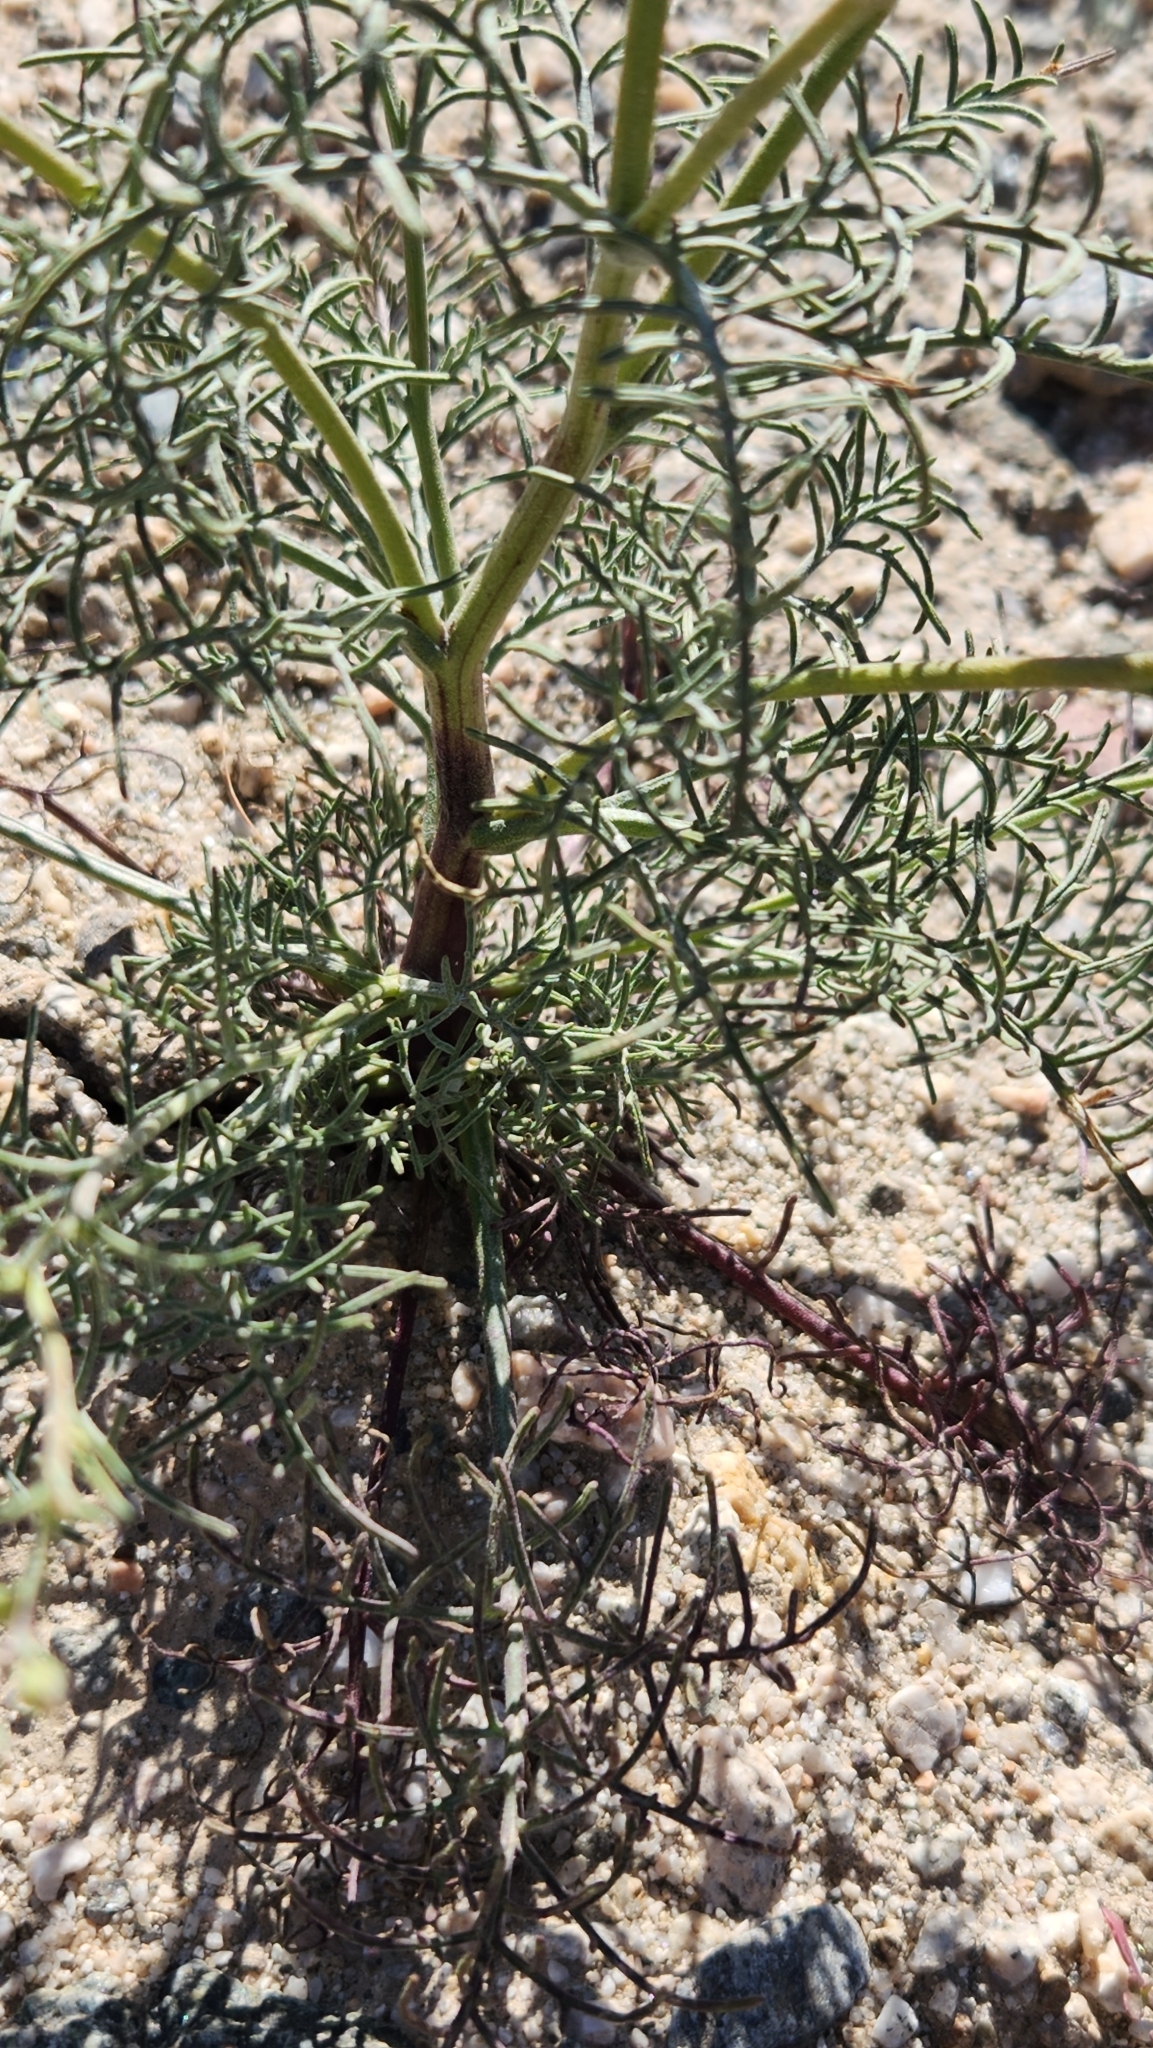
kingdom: Plantae
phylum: Tracheophyta
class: Magnoliopsida
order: Asterales
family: Asteraceae
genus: Chaenactis
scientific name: Chaenactis carphoclinia
